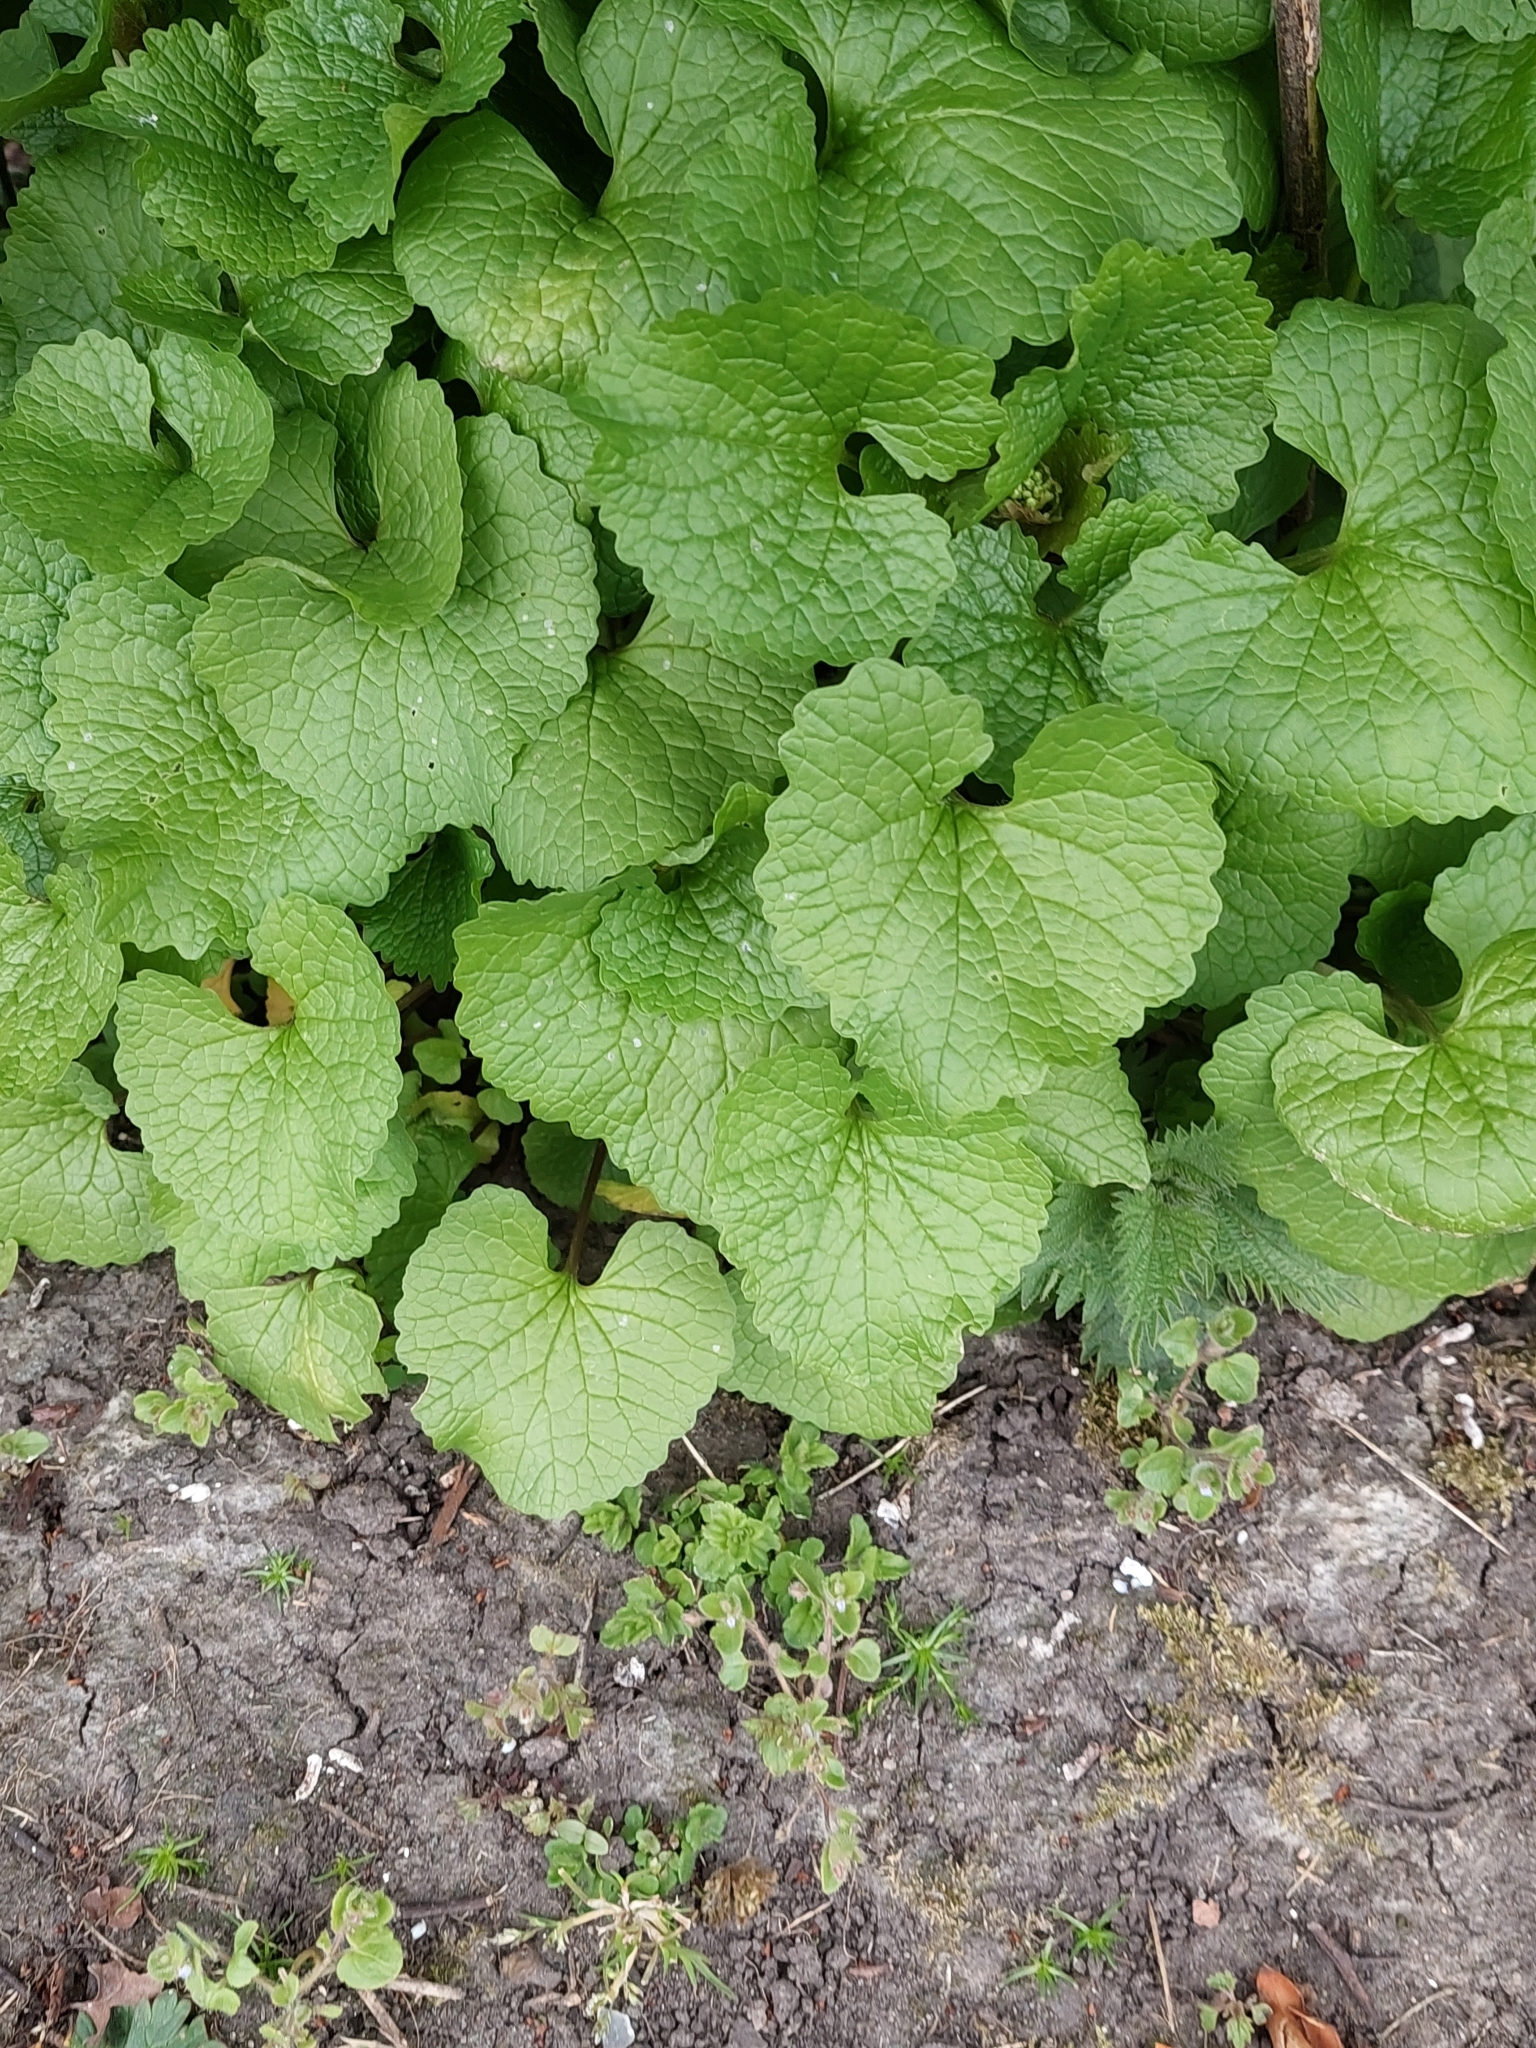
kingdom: Plantae
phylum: Tracheophyta
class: Magnoliopsida
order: Brassicales
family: Brassicaceae
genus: Alliaria
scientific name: Alliaria petiolata
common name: Garlic mustard
